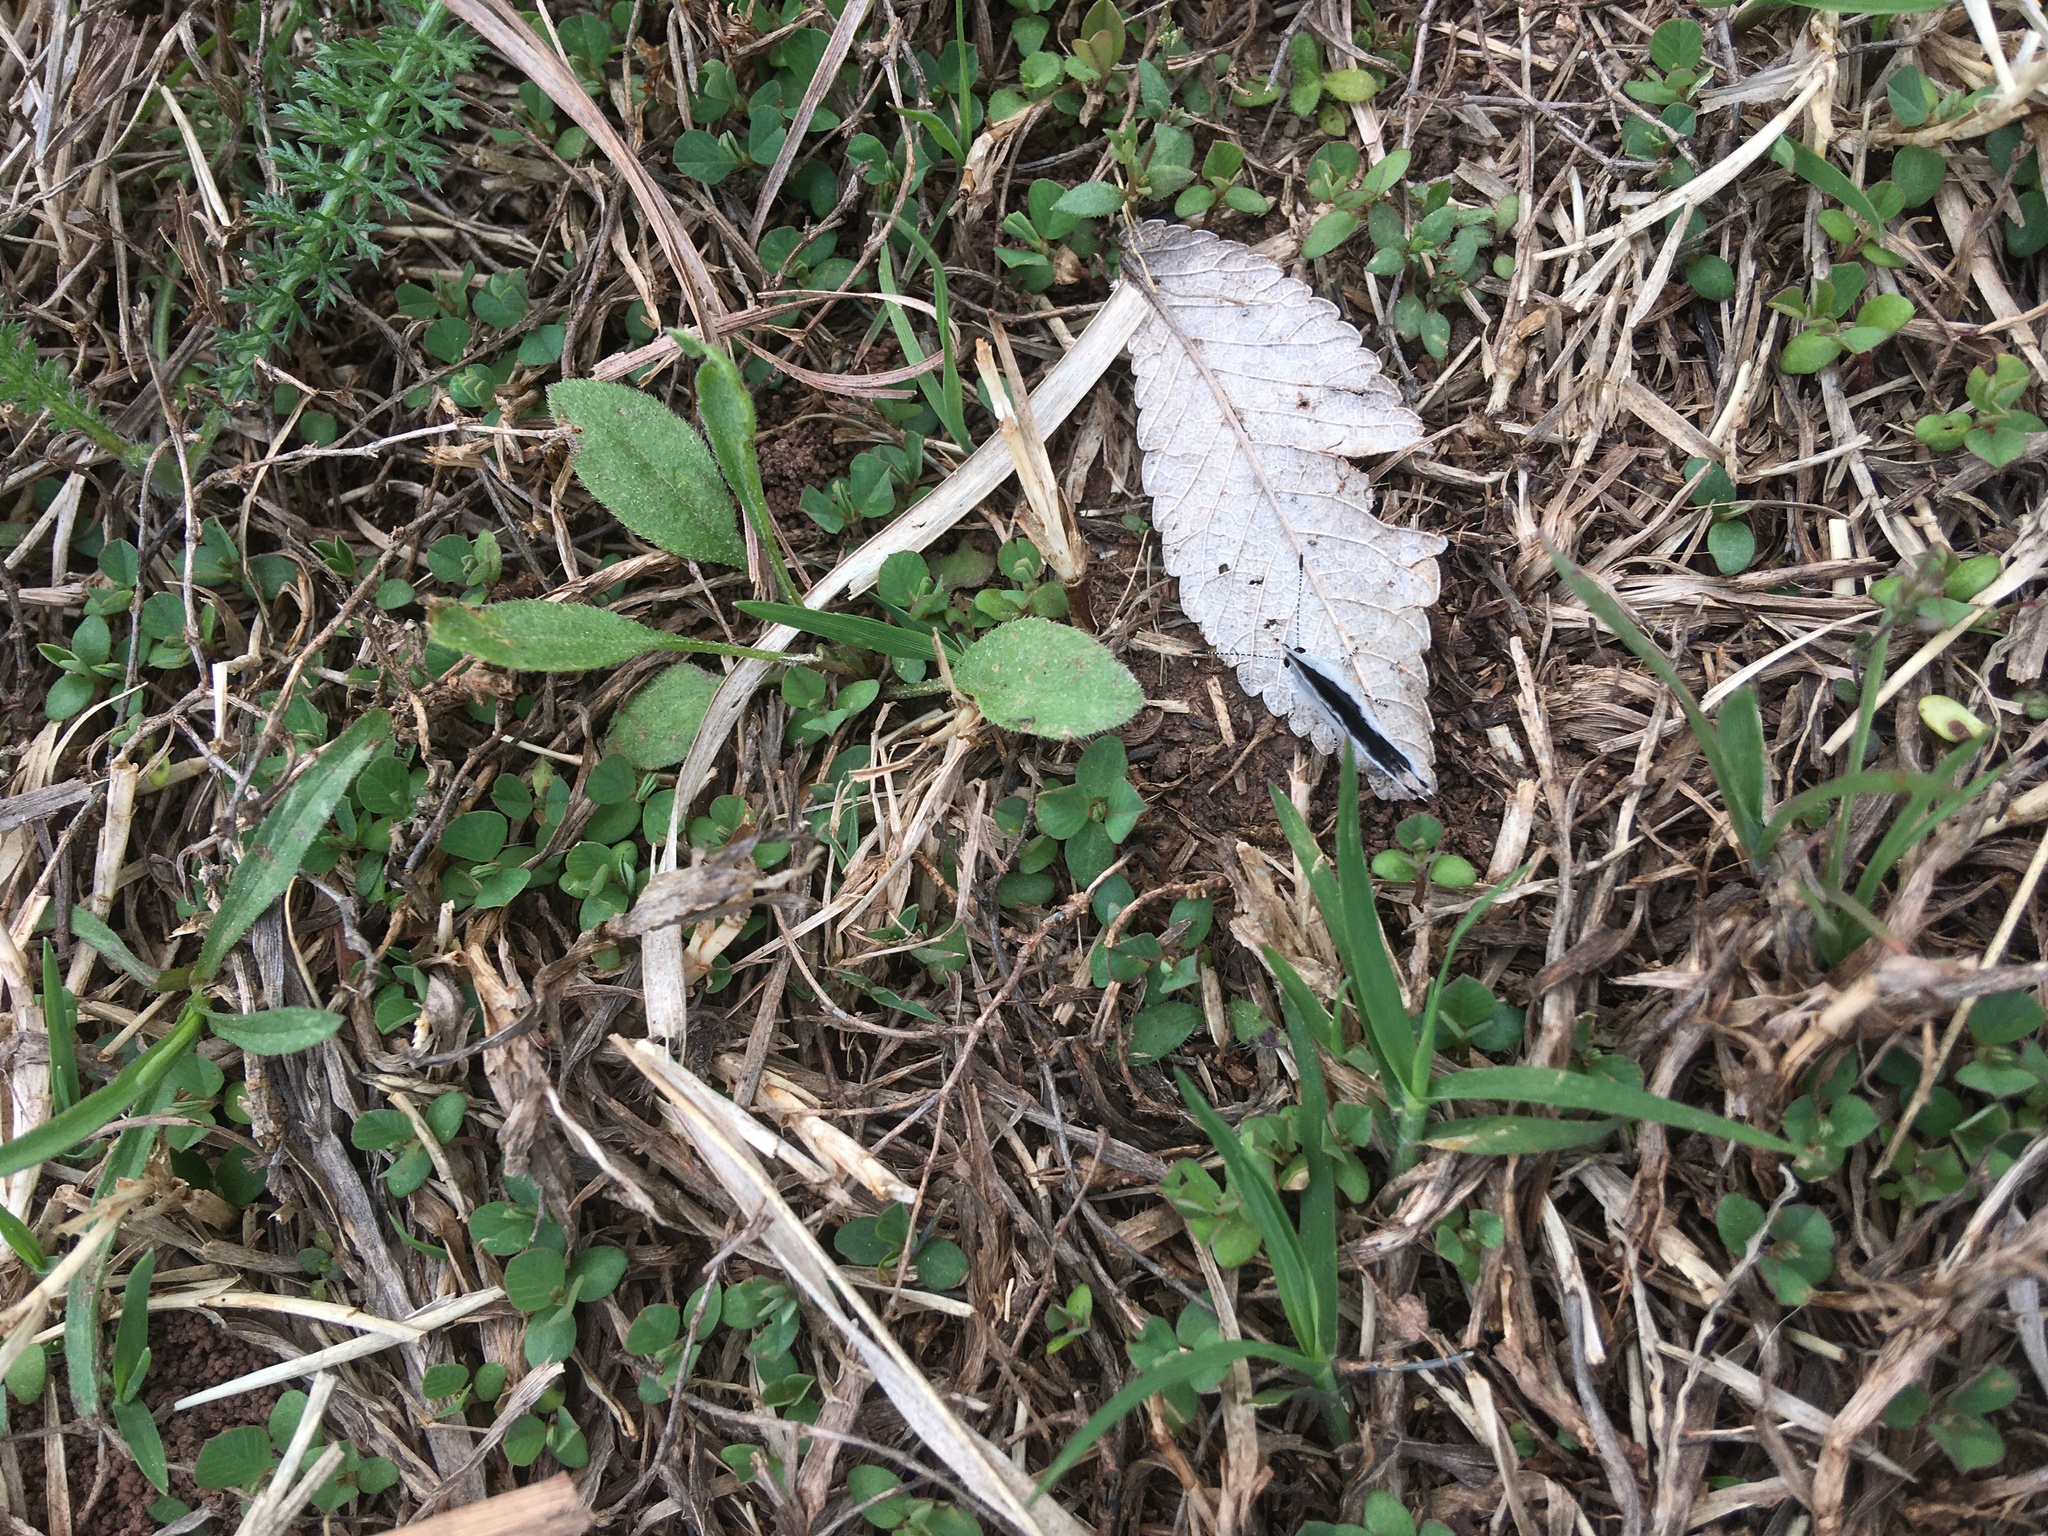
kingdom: Animalia
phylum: Arthropoda
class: Insecta
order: Lepidoptera
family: Lycaenidae
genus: Elkalyce
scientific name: Elkalyce comyntas
